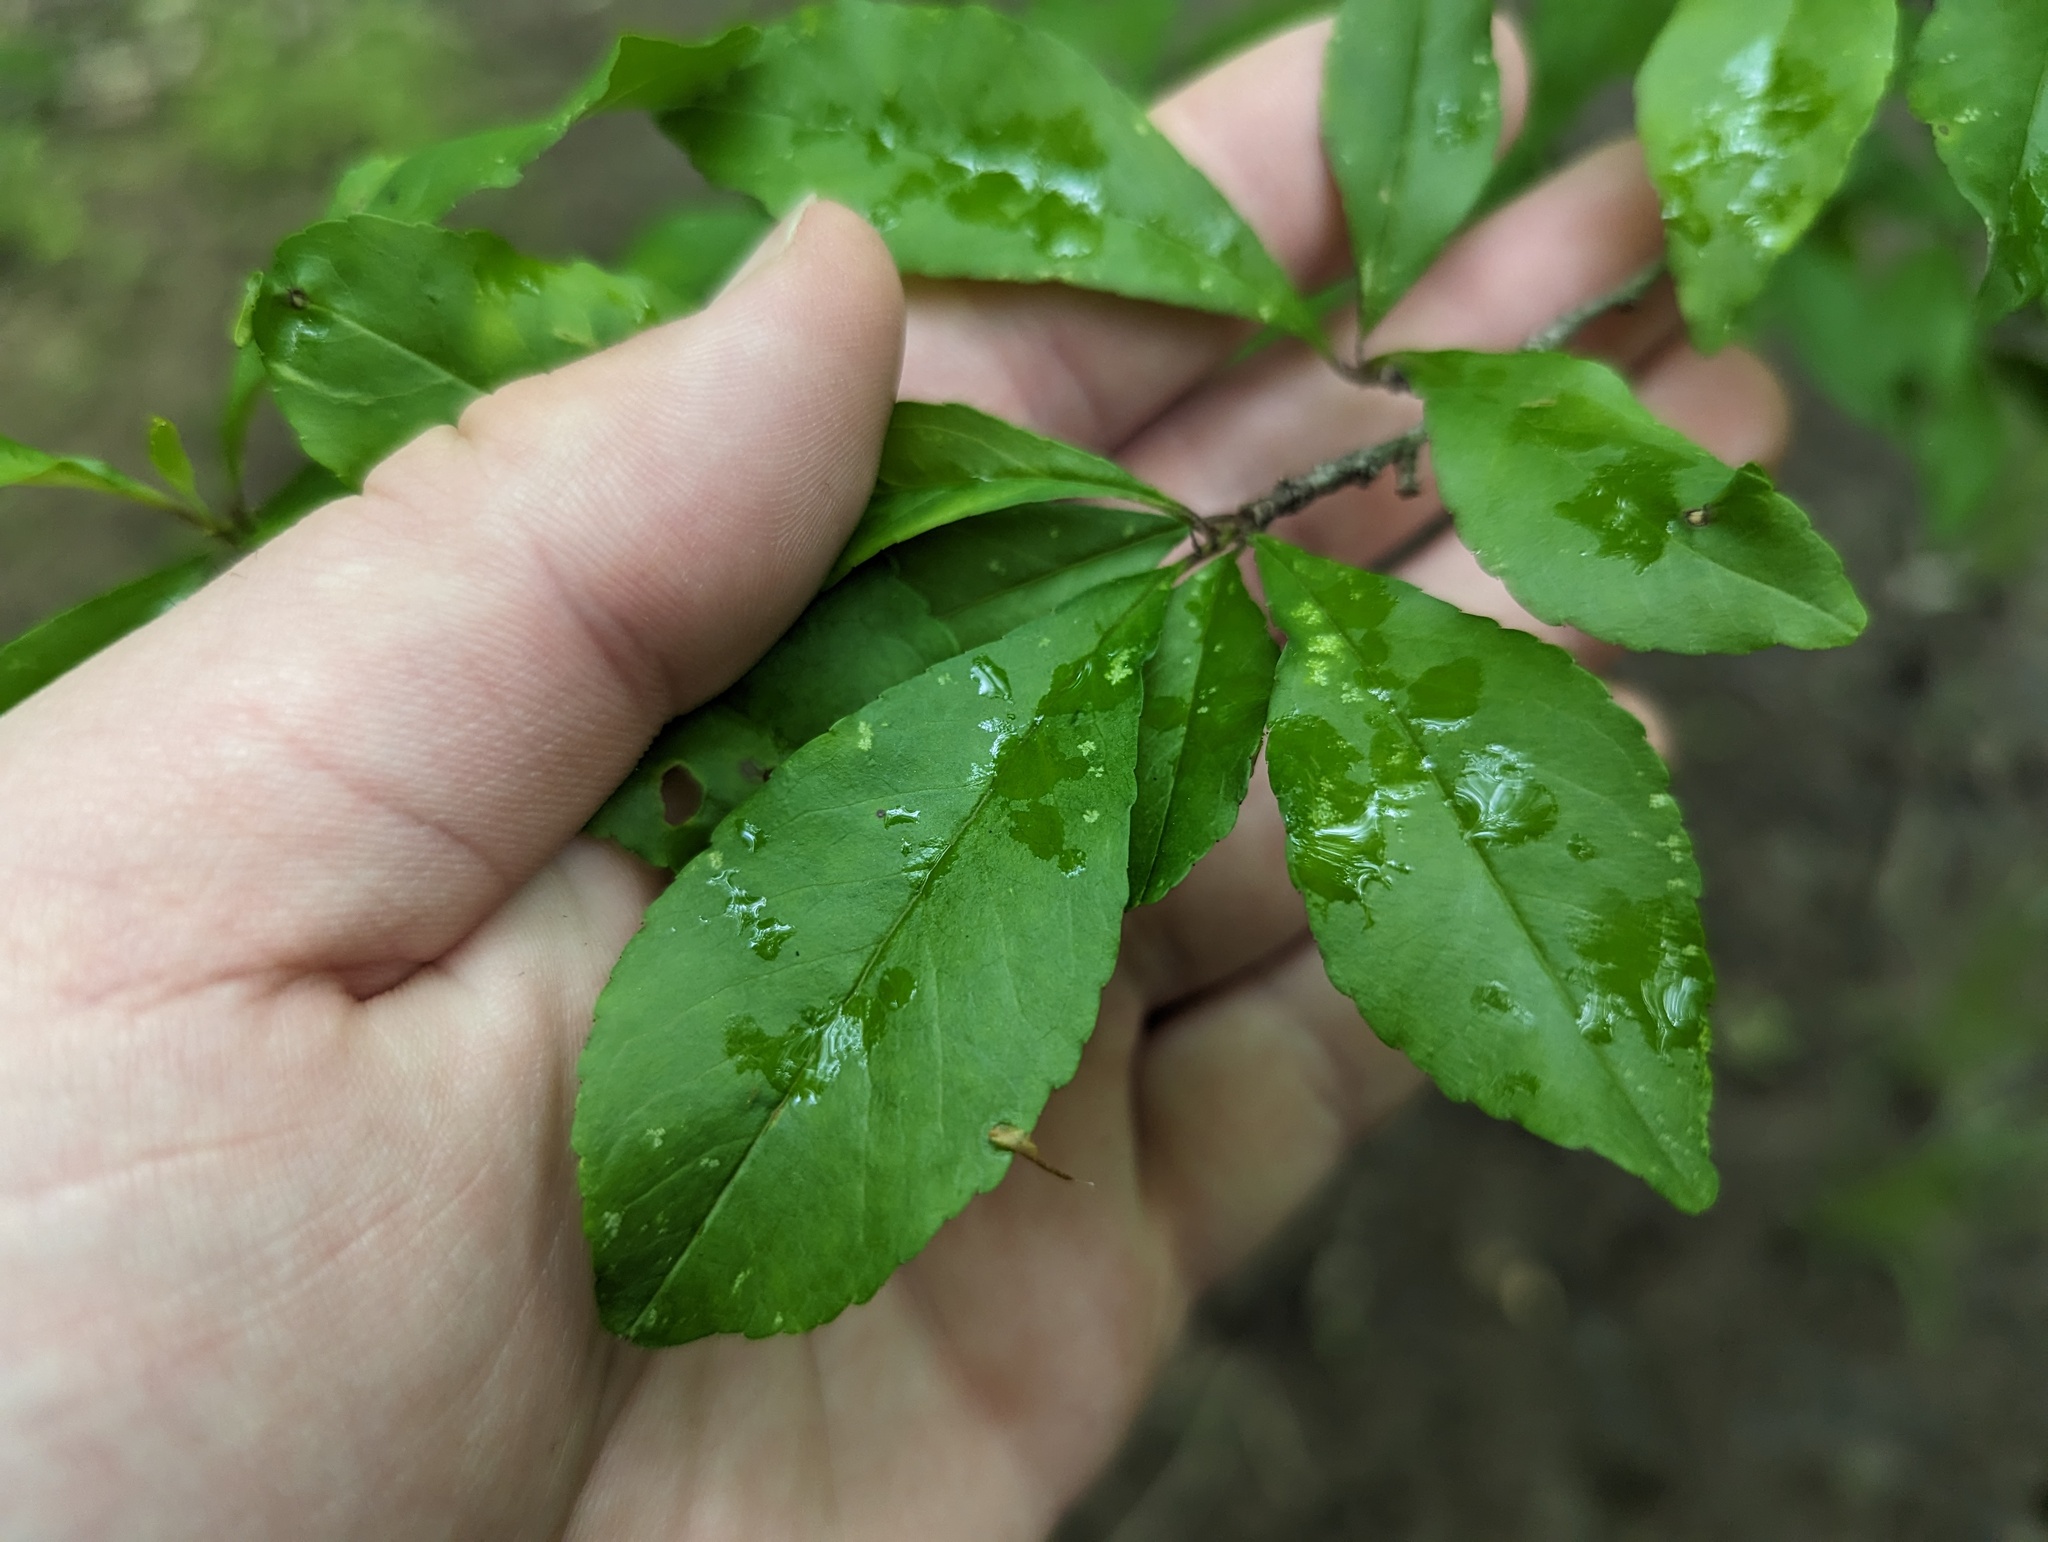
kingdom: Plantae
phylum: Tracheophyta
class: Magnoliopsida
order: Aquifoliales
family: Aquifoliaceae
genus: Ilex
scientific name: Ilex decidua
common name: Possum-haw
